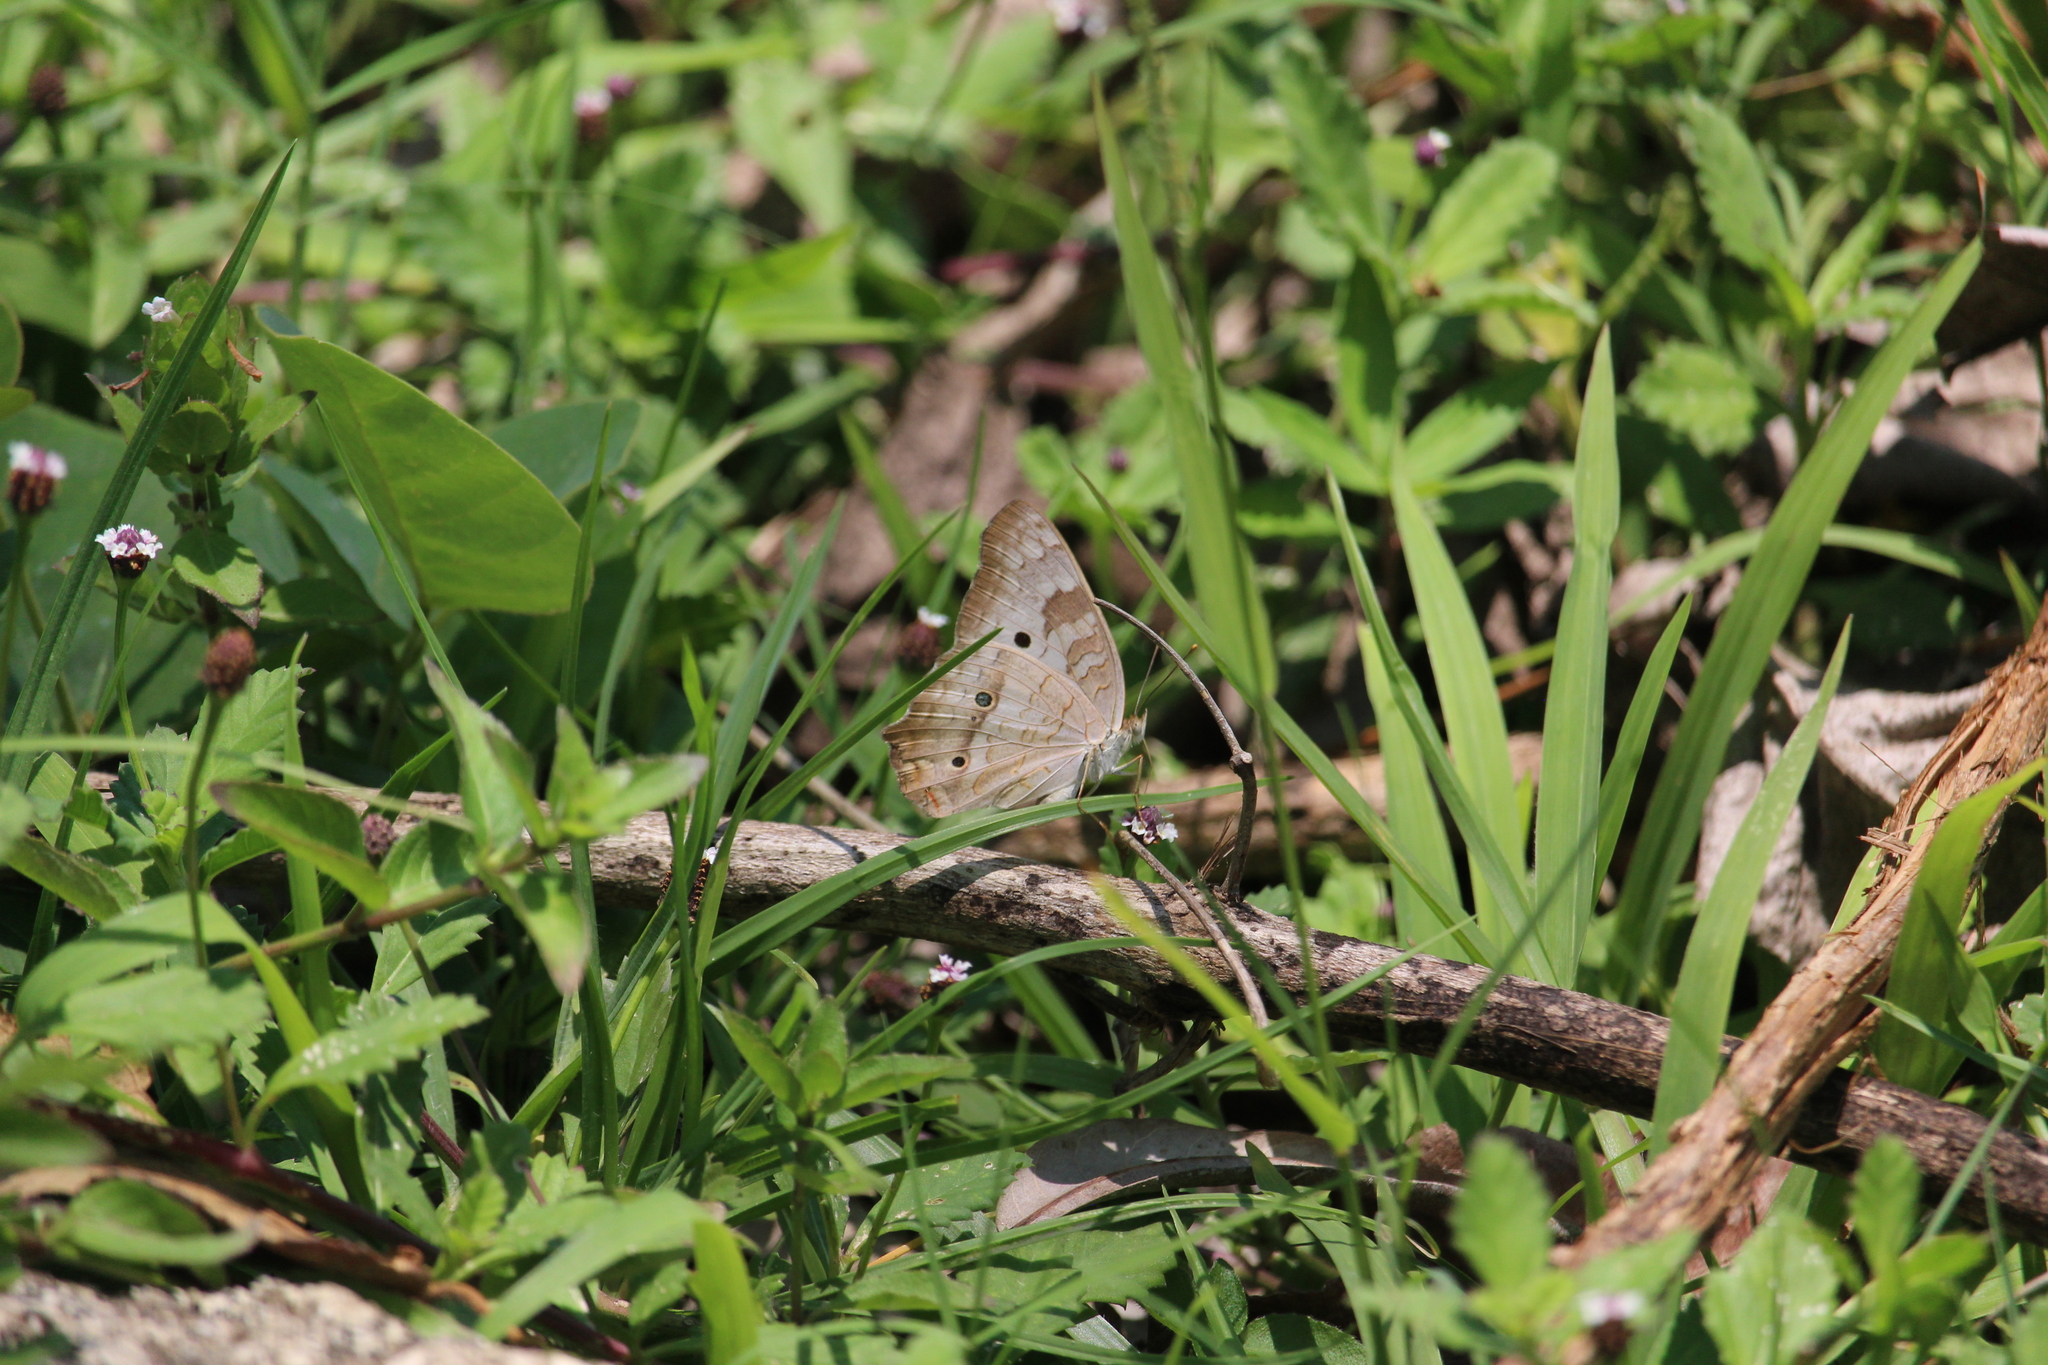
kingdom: Animalia
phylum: Arthropoda
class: Insecta
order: Lepidoptera
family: Nymphalidae
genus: Anartia
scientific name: Anartia jatrophae
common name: White peacock
